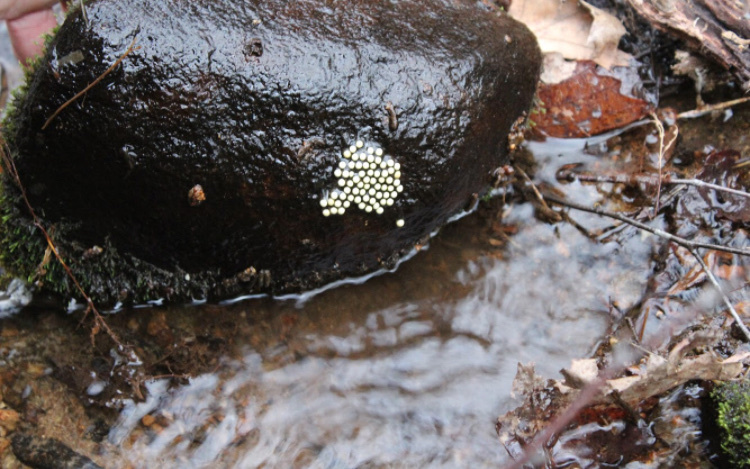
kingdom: Animalia
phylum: Chordata
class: Amphibia
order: Caudata
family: Plethodontidae
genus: Eurycea
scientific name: Eurycea cirrigera
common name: Southern two-lined salamander
